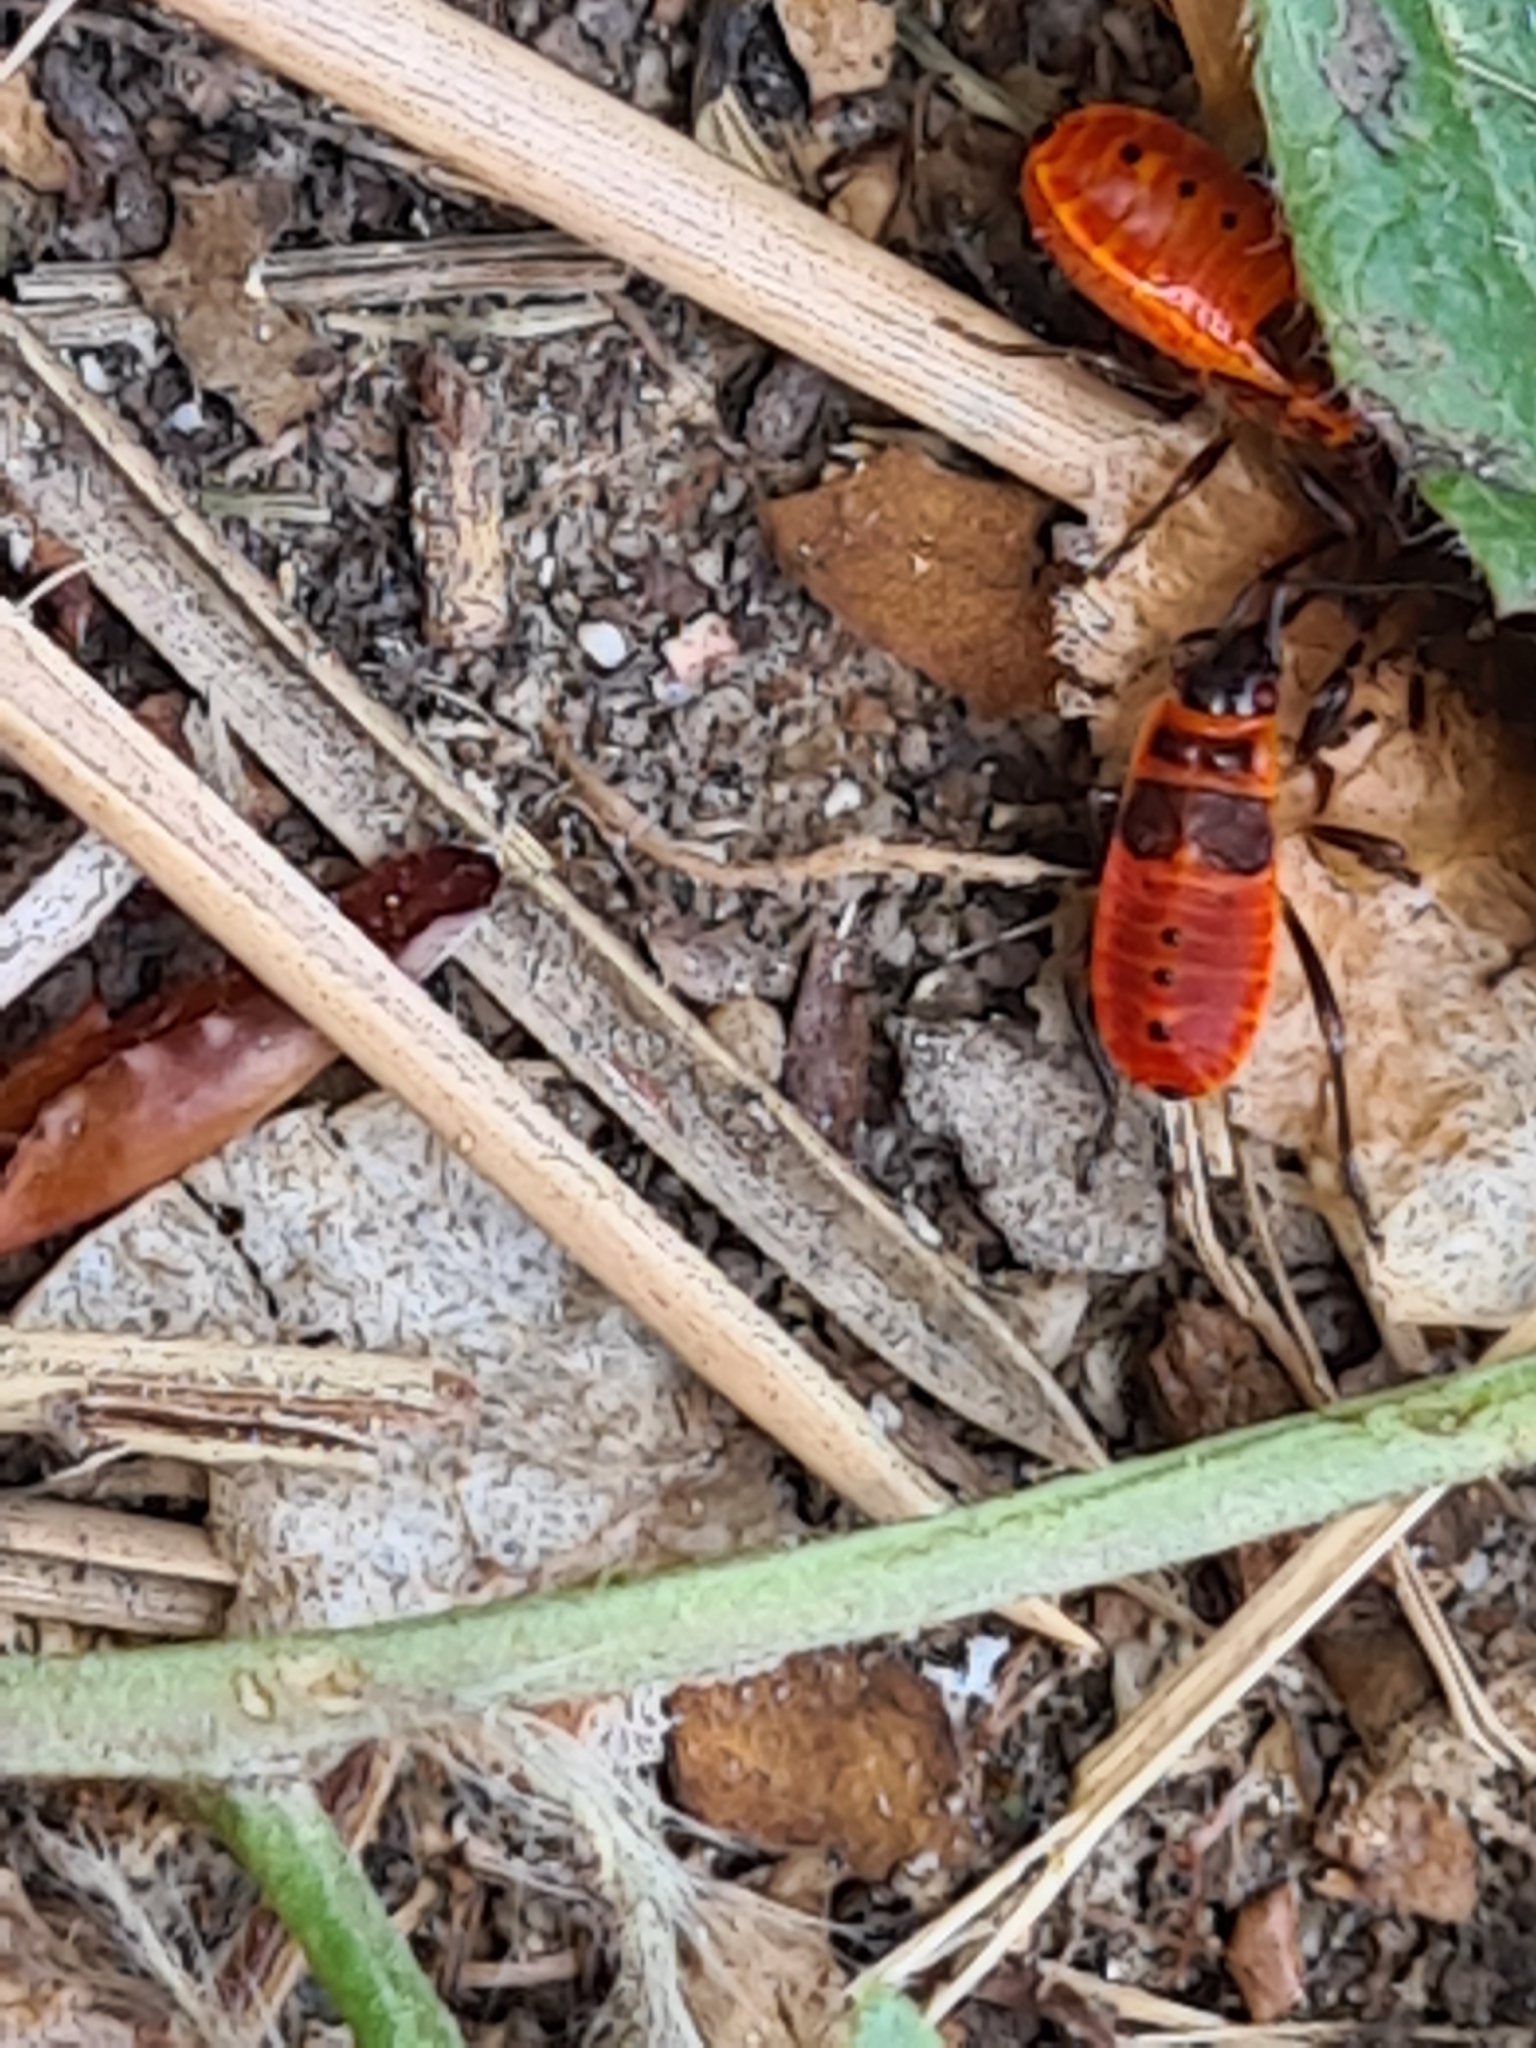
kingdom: Animalia
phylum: Arthropoda
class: Insecta
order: Hemiptera
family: Pyrrhocoridae
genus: Pyrrhocoris
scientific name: Pyrrhocoris apterus
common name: Firebug
